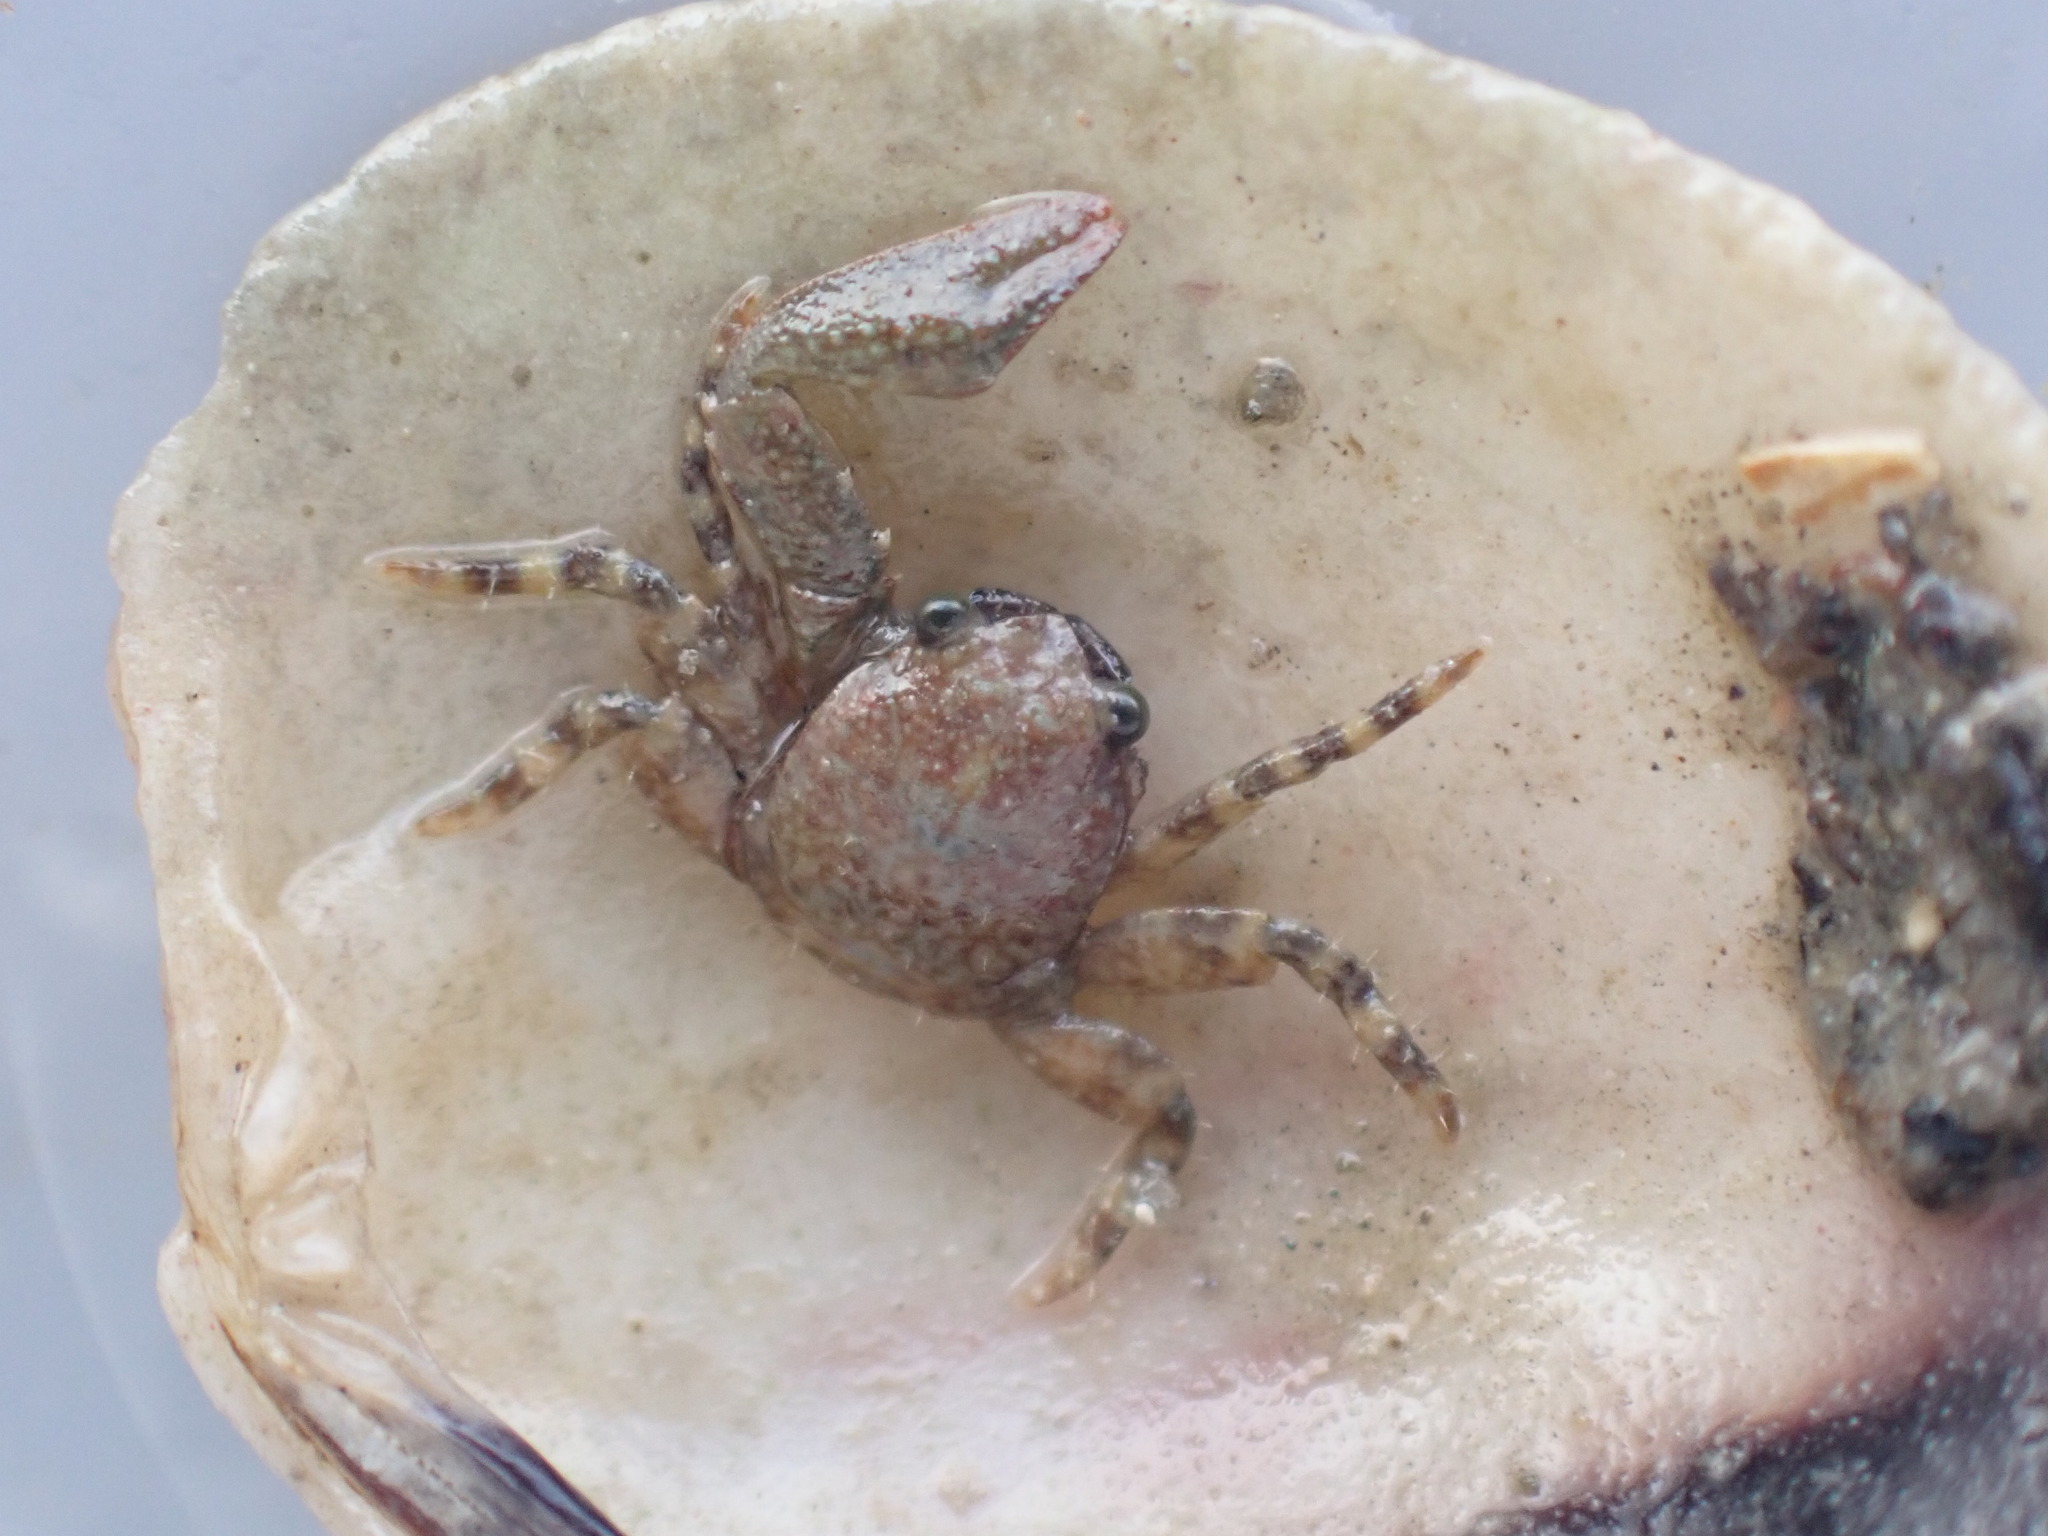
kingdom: Animalia
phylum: Arthropoda
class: Malacostraca
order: Decapoda
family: Porcellanidae
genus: Petrocheles
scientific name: Petrocheles spinosus
